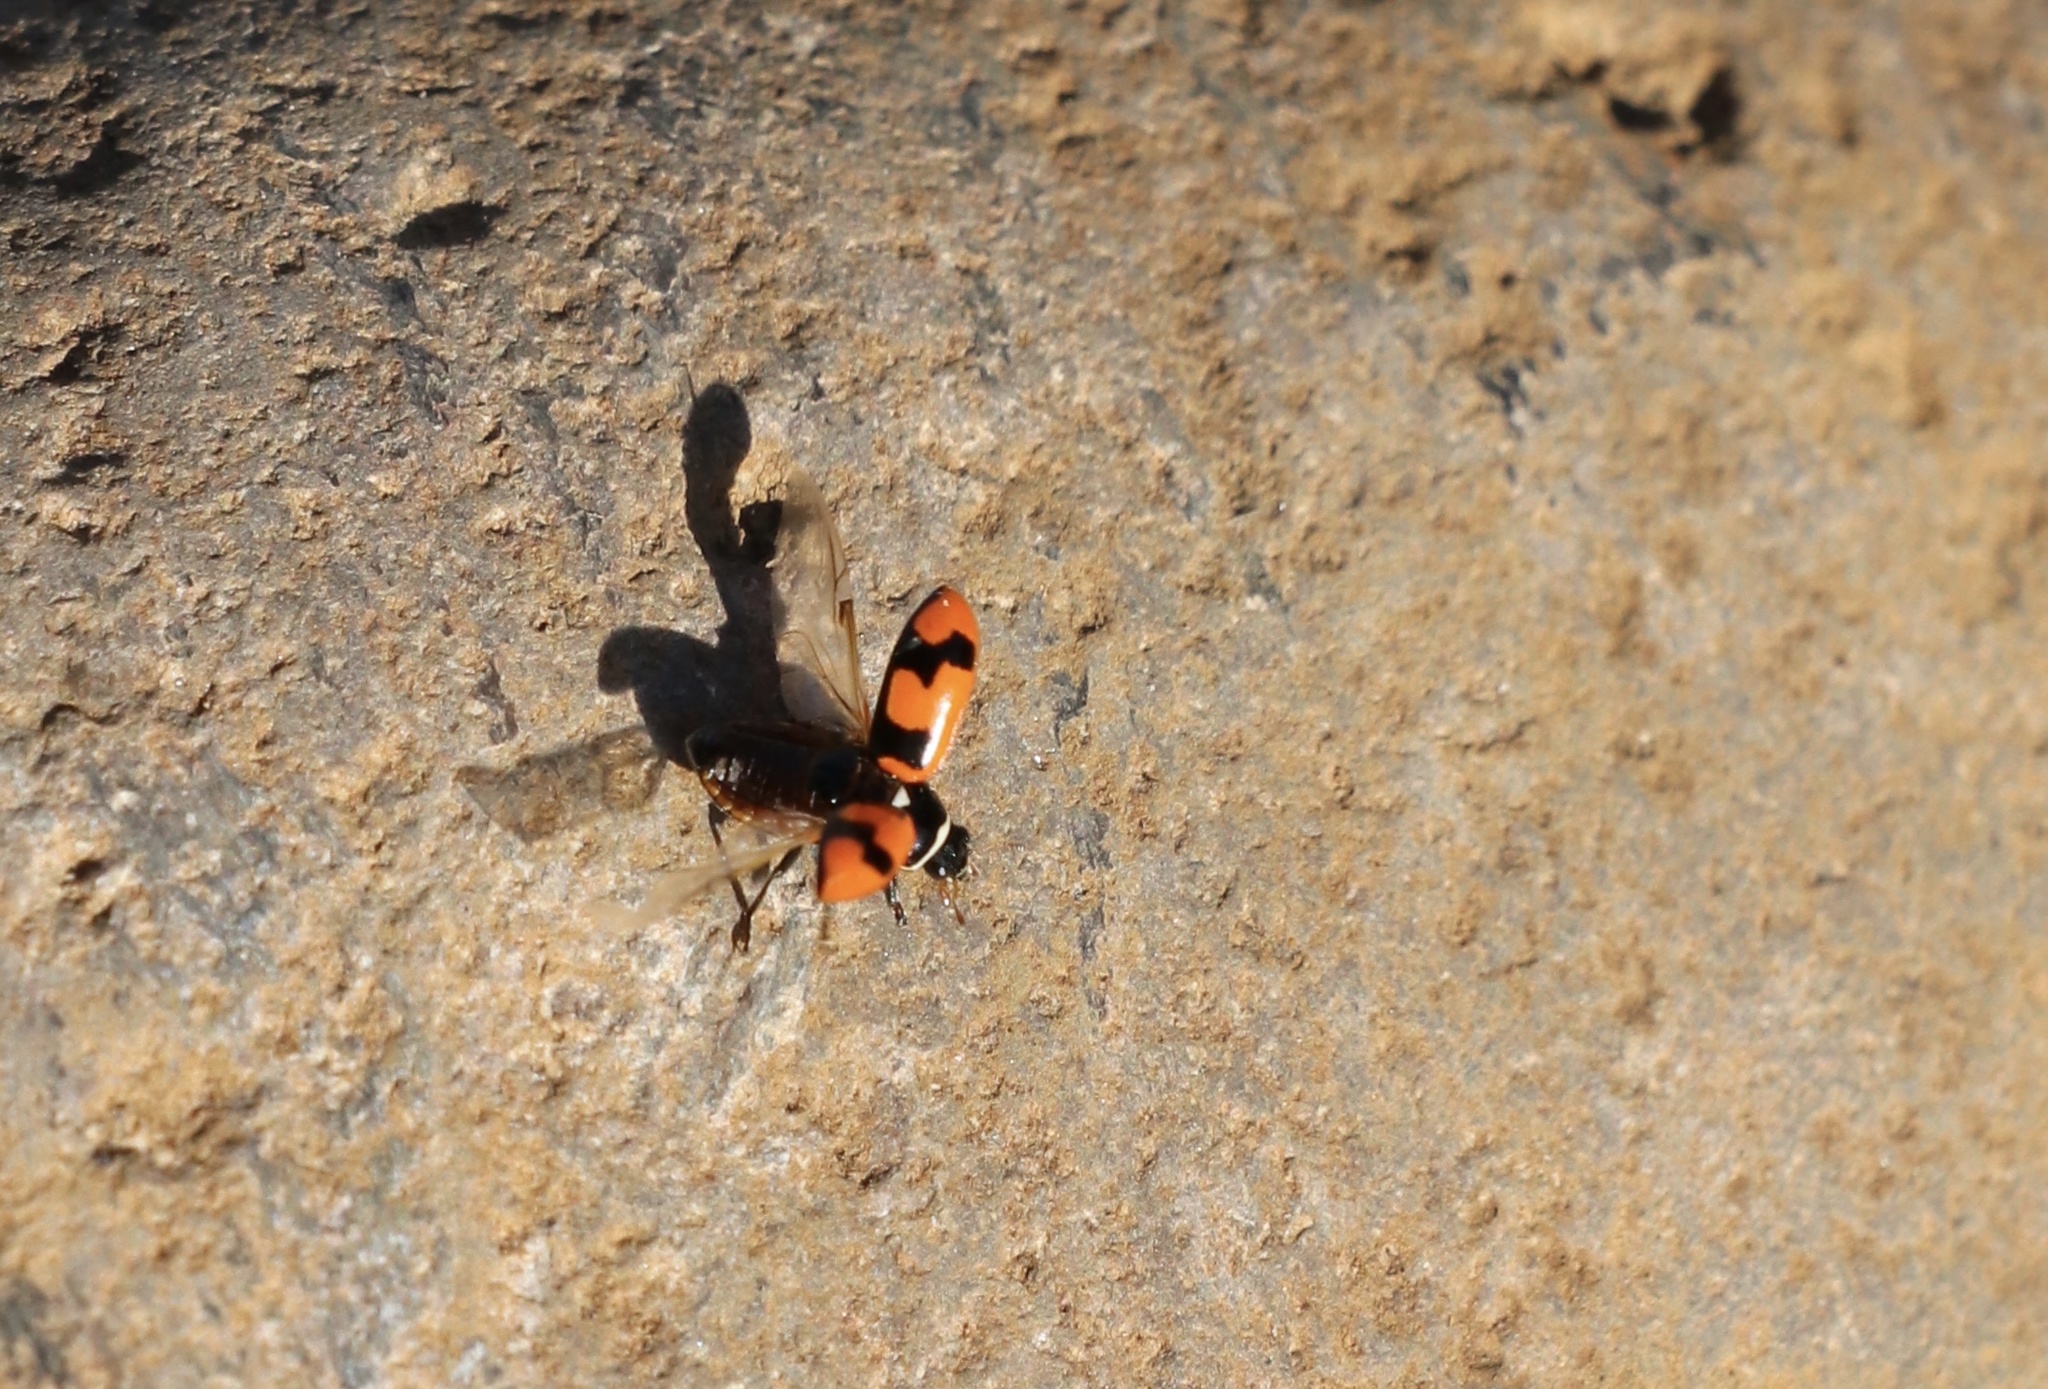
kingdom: Animalia
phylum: Arthropoda
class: Insecta
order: Coleoptera
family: Coccinellidae
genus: Eriopis
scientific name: Eriopis eschscholtzii
